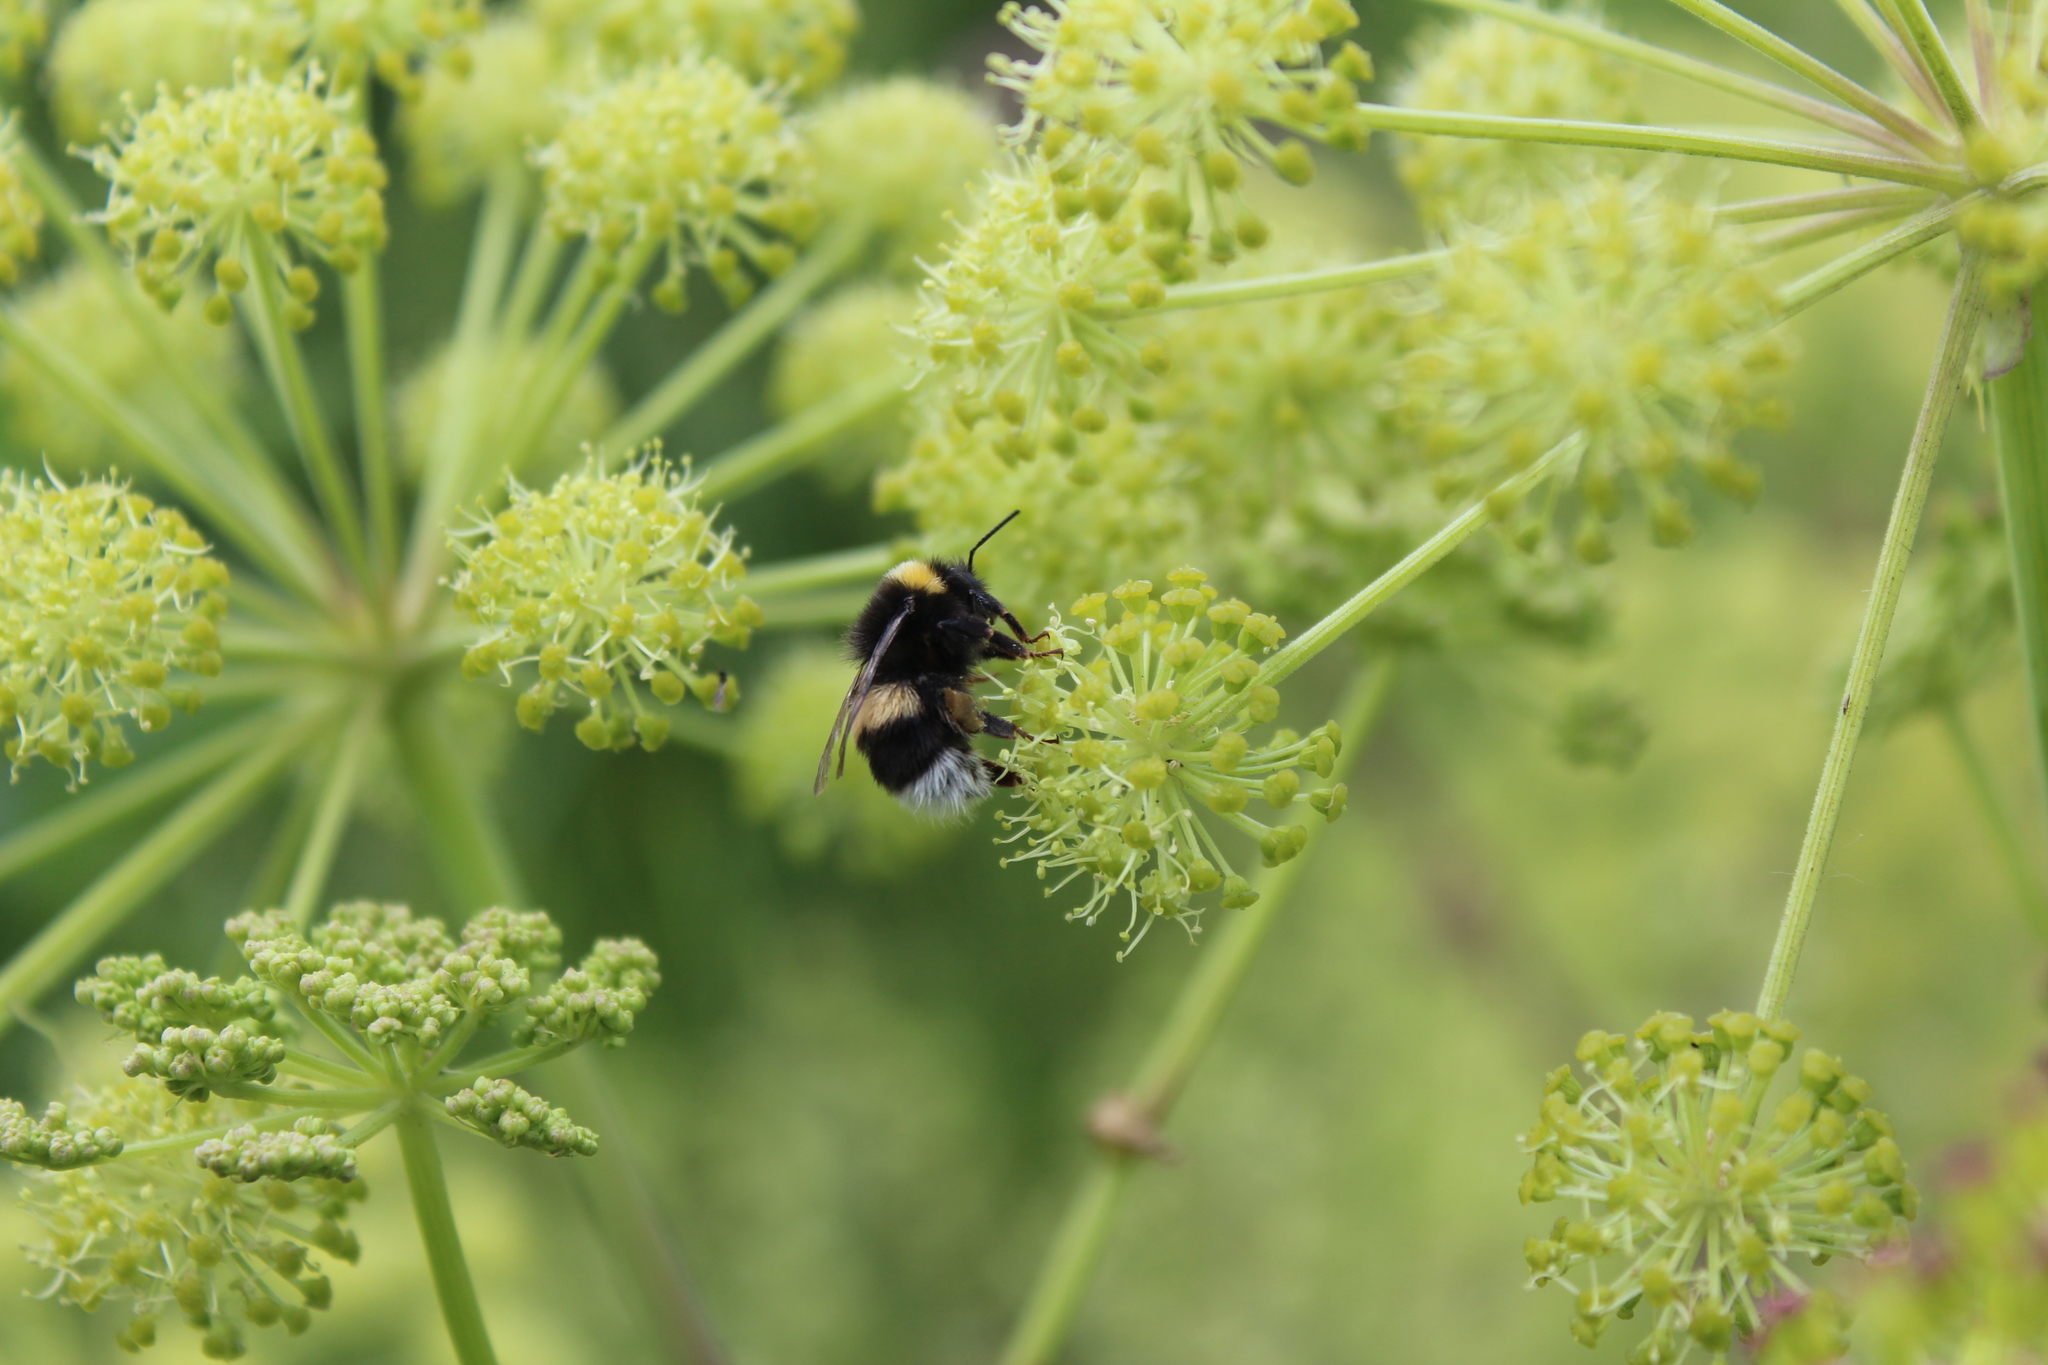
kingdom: Animalia
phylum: Arthropoda
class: Insecta
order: Hymenoptera
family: Apidae
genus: Bombus
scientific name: Bombus lucorum
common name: White-tailed bumblebee
